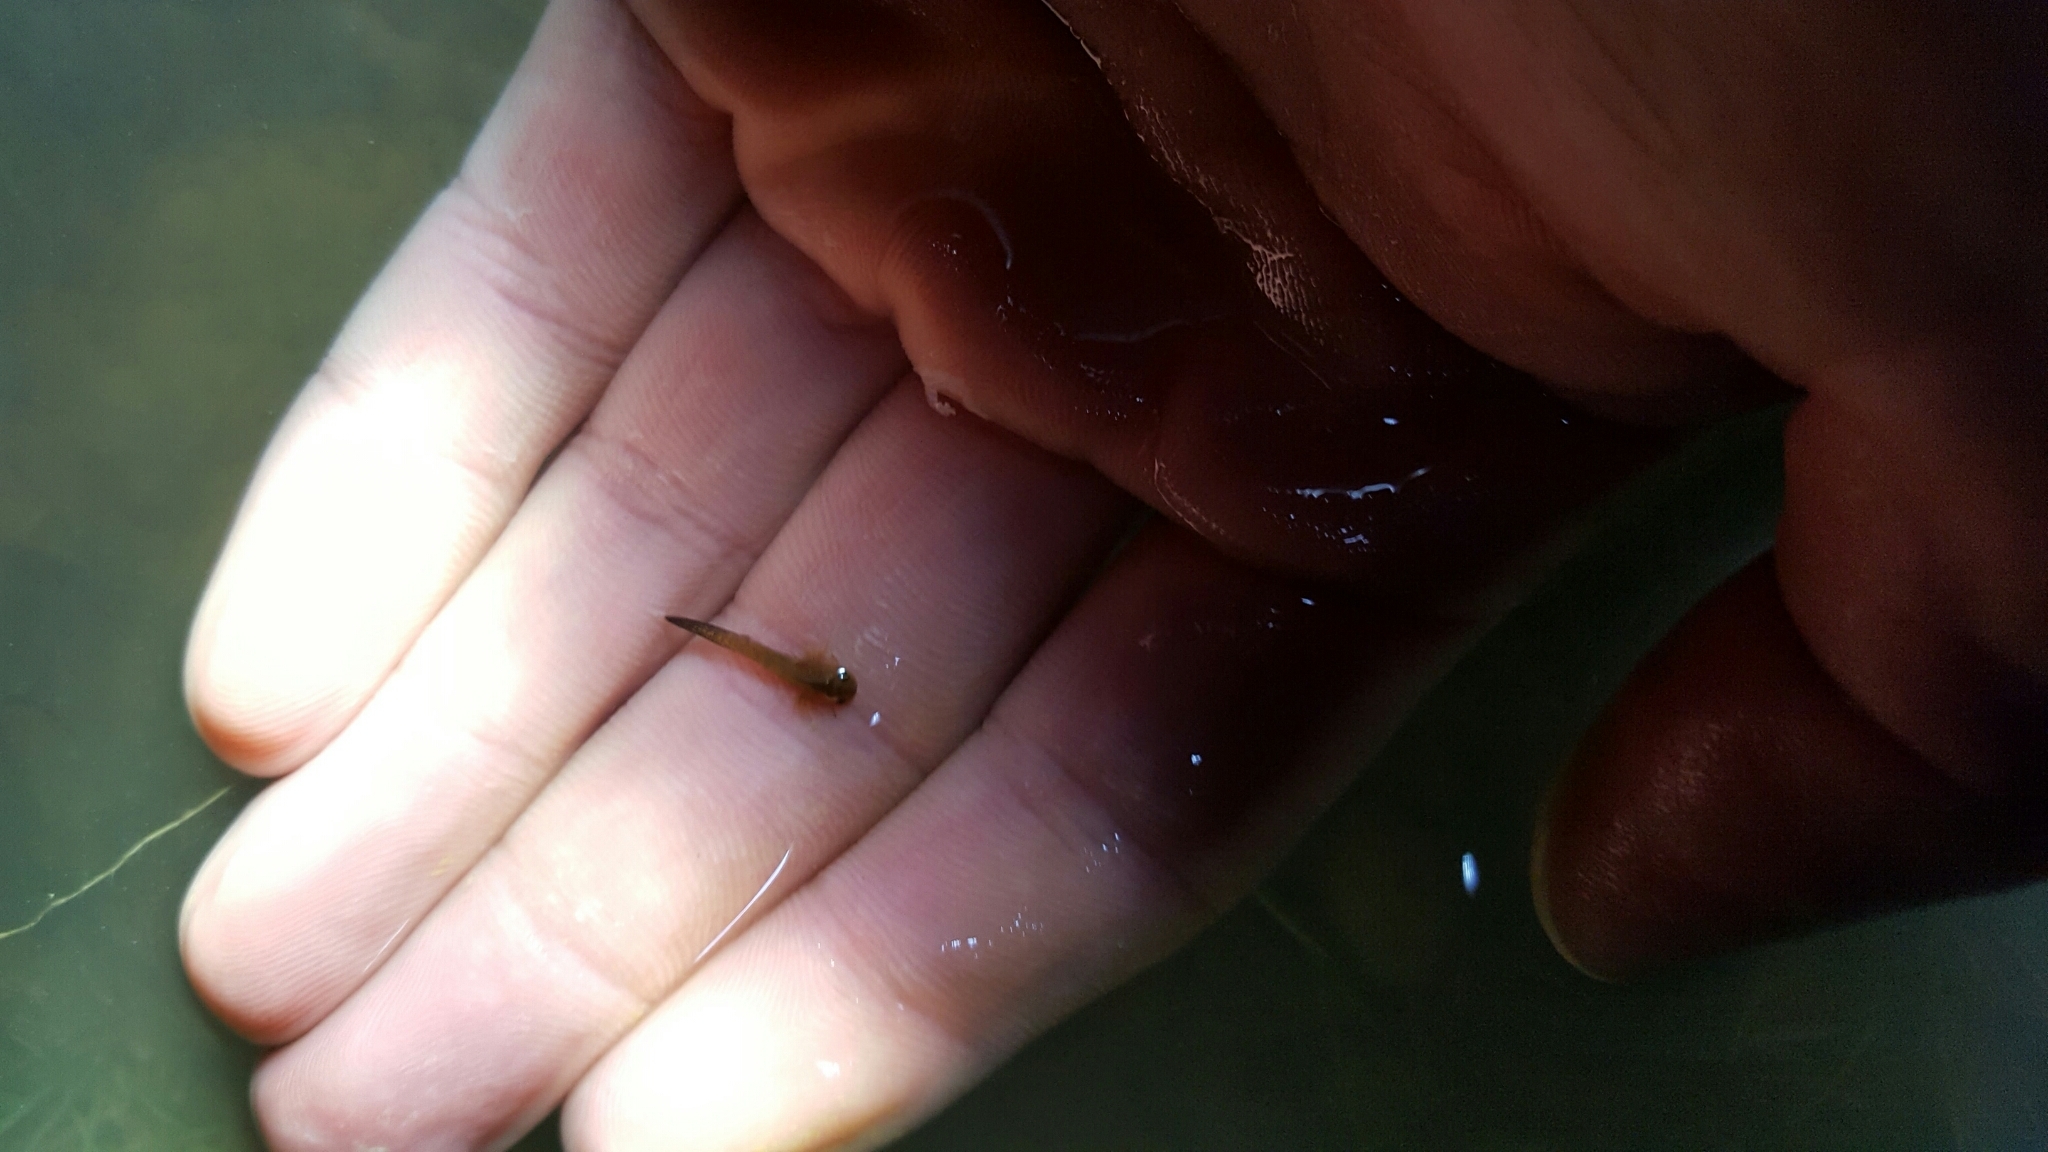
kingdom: Animalia
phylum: Chordata
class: Amphibia
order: Caudata
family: Ambystomatidae
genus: Ambystoma
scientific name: Ambystoma
